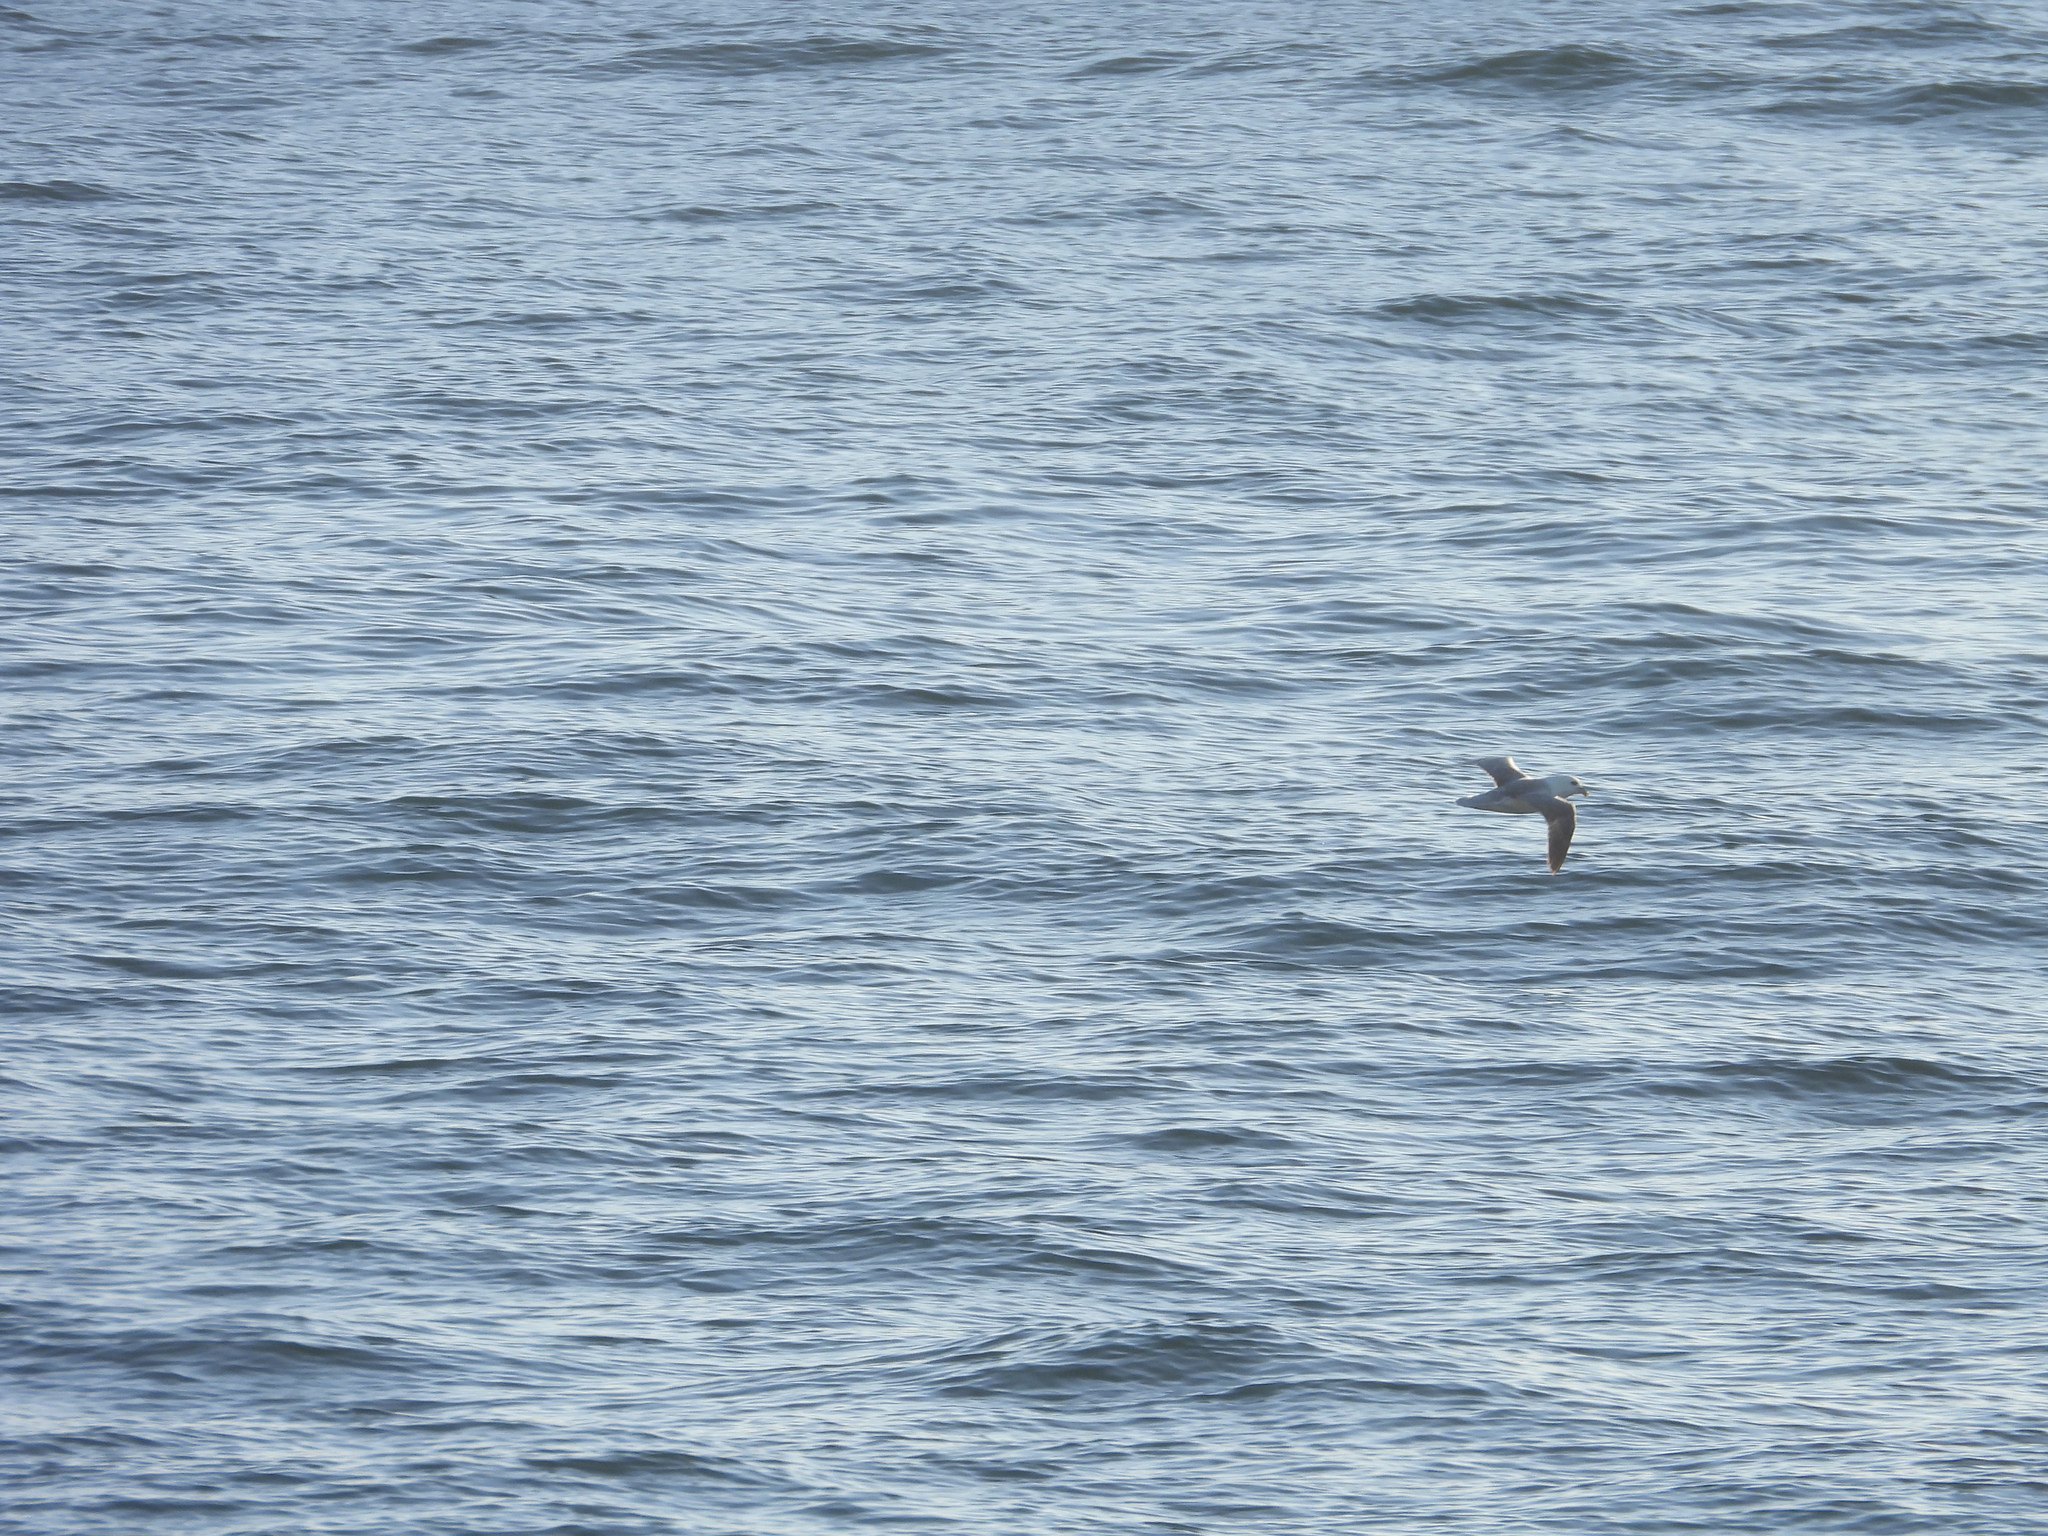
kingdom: Animalia
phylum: Chordata
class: Aves
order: Procellariiformes
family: Procellariidae
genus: Fulmarus
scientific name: Fulmarus glacialis
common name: Northern fulmar
